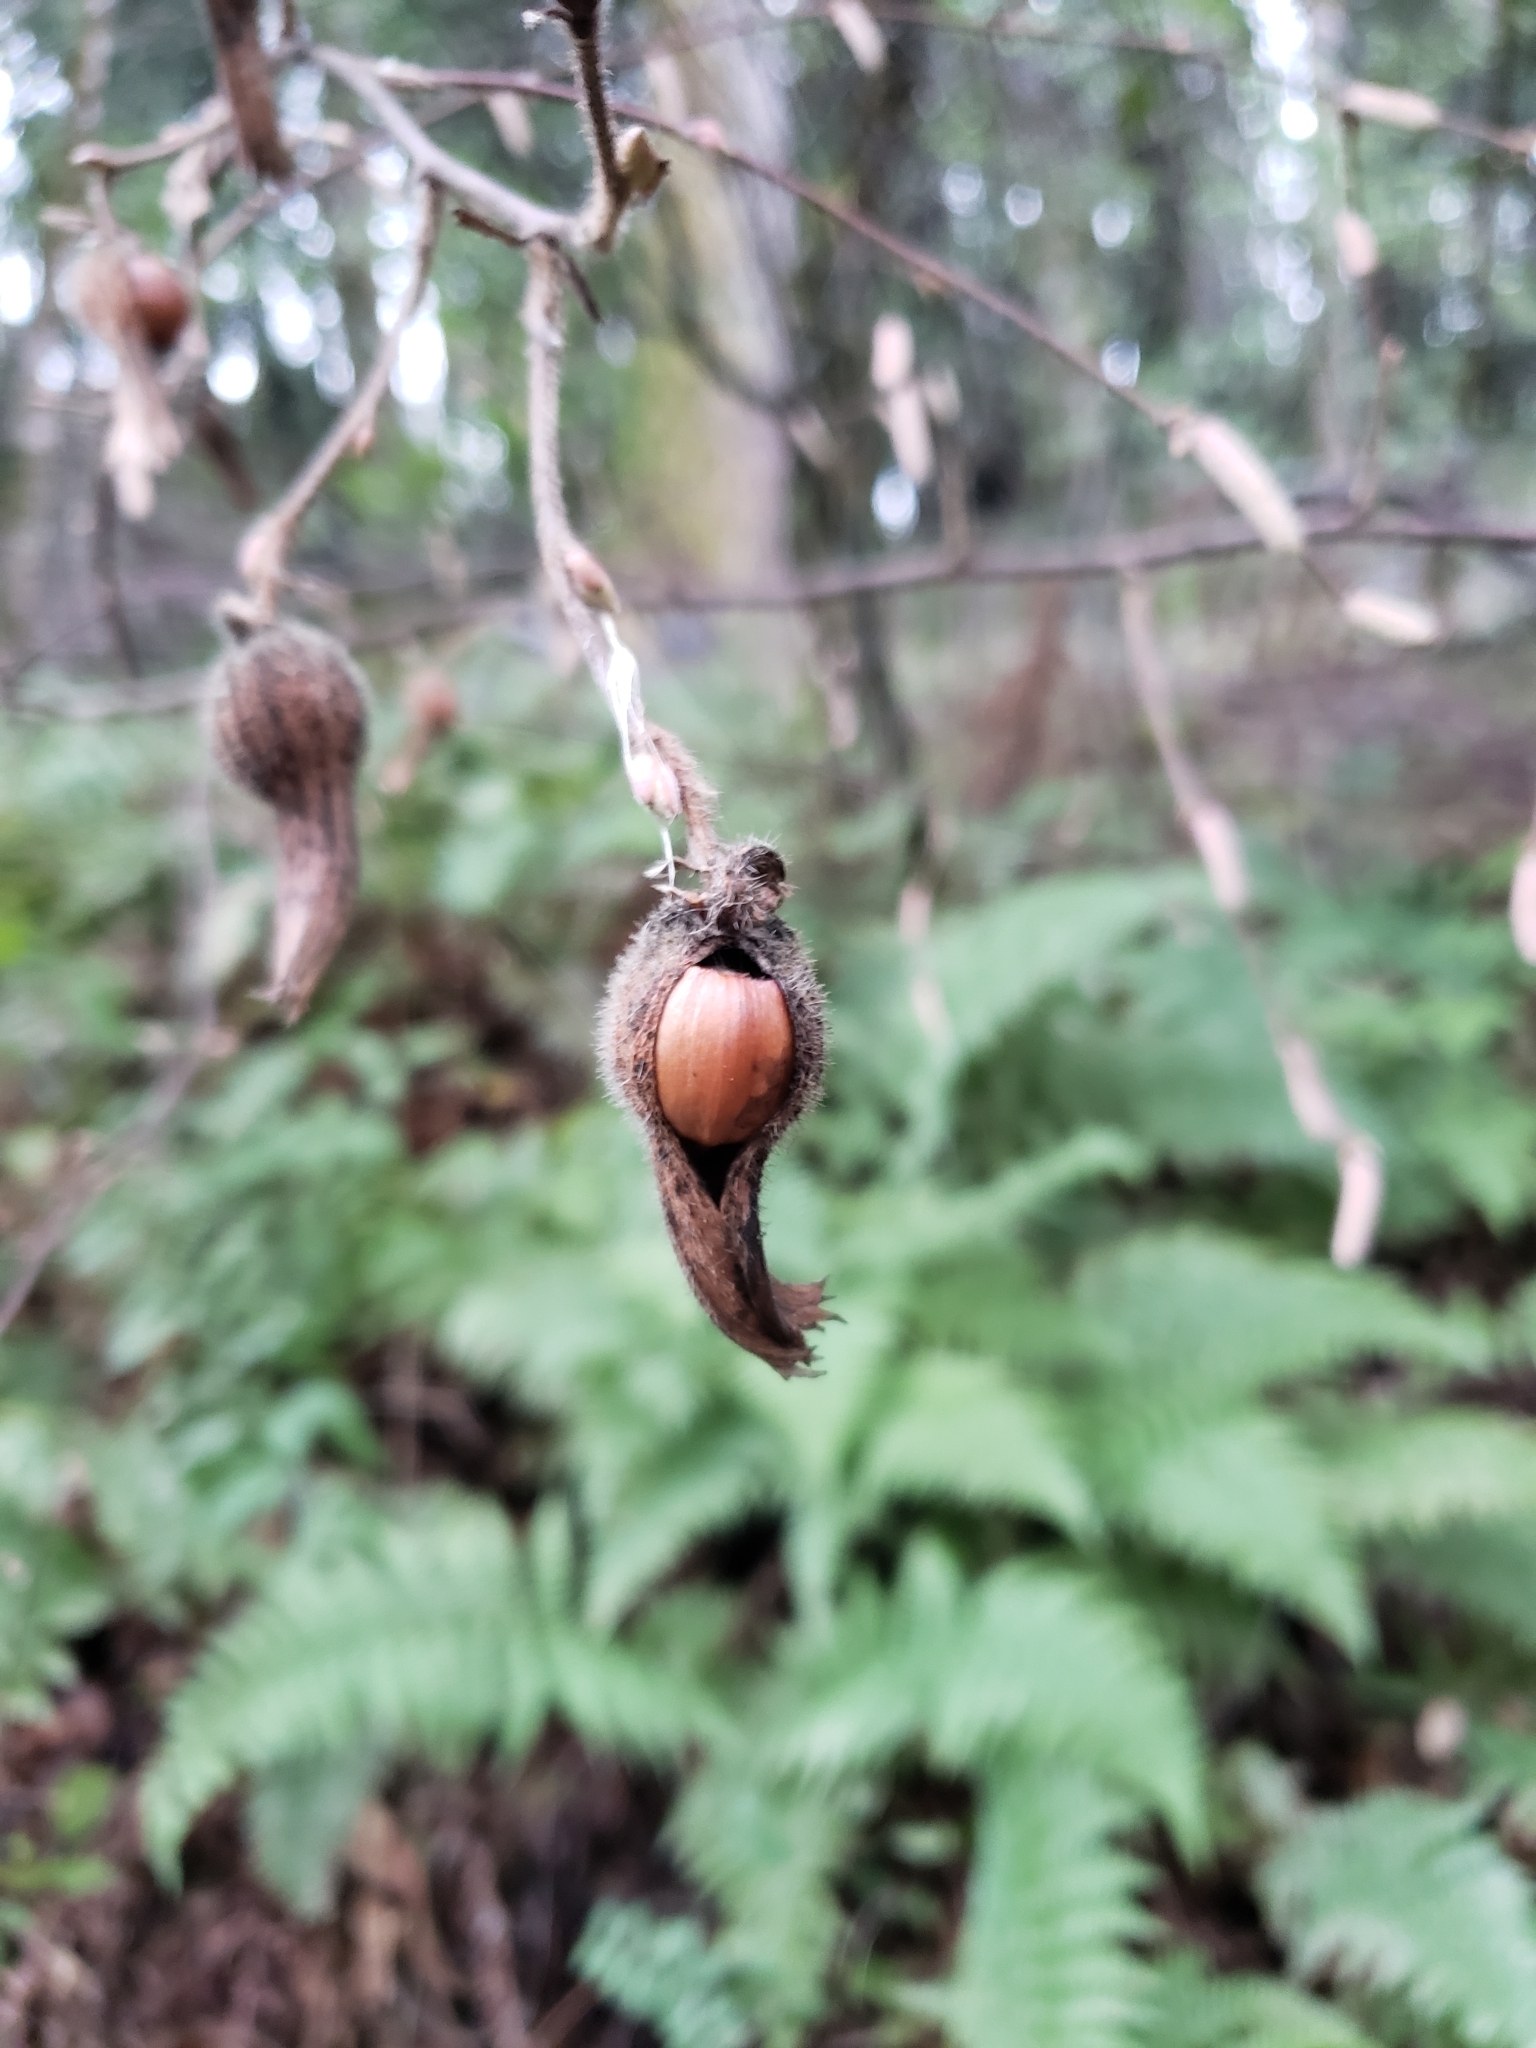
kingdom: Plantae
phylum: Tracheophyta
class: Magnoliopsida
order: Fagales
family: Betulaceae
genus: Corylus
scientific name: Corylus cornuta
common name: Beaked hazel
